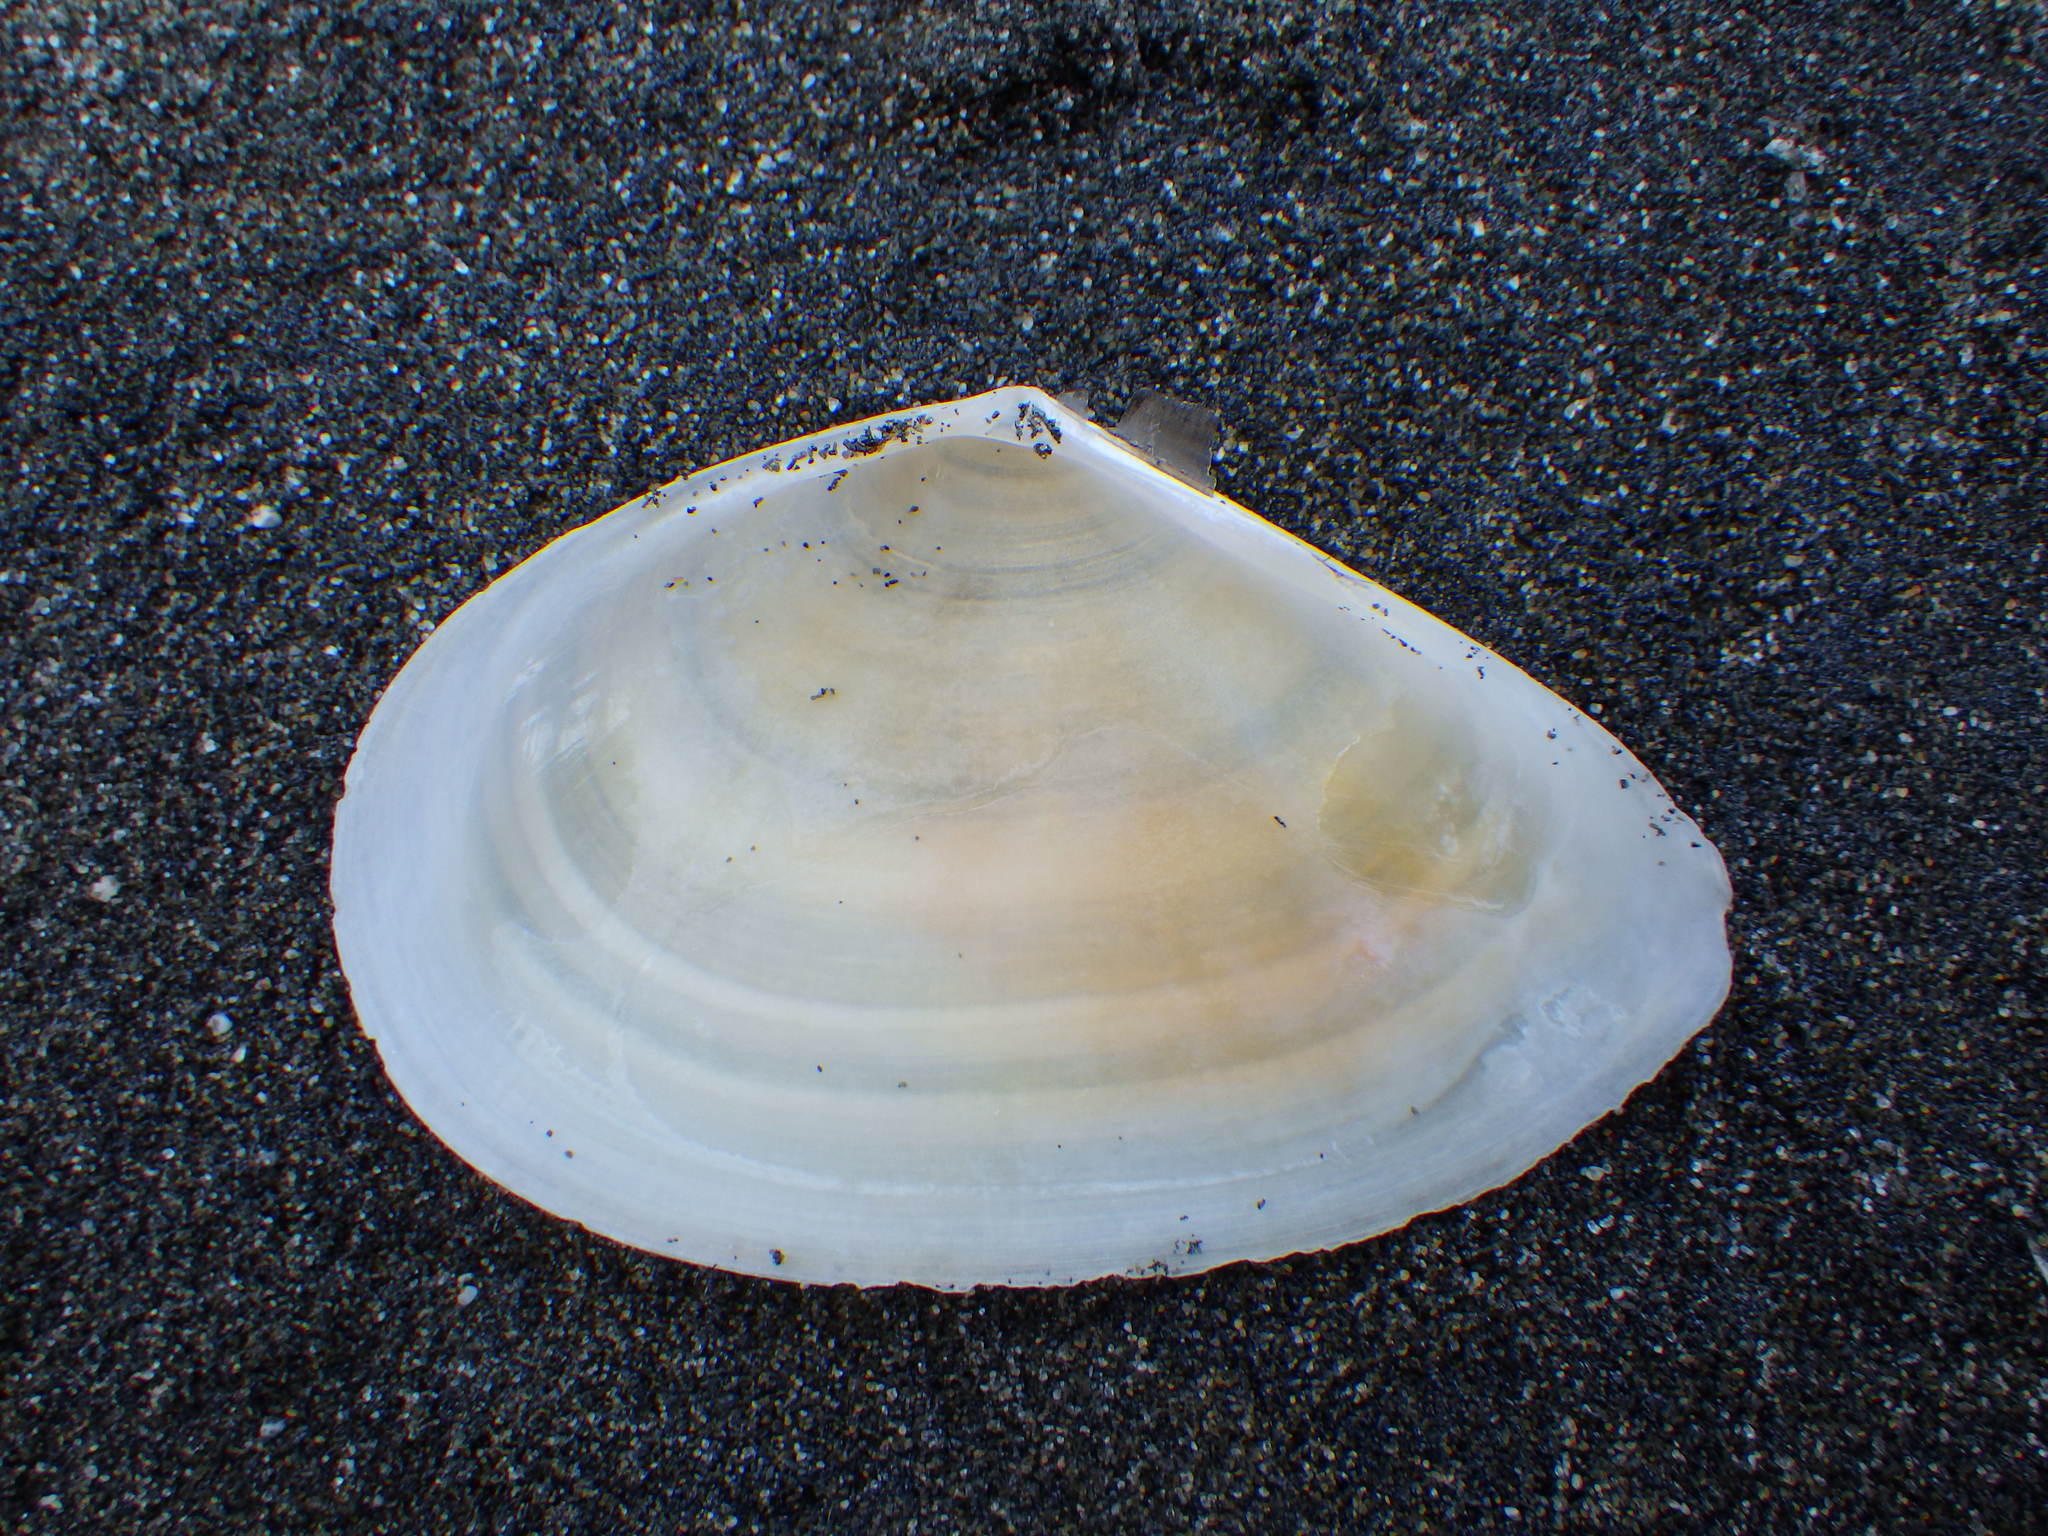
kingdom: Animalia
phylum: Mollusca
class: Bivalvia
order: Cardiida
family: Tellinidae
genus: Bartschicoma
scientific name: Bartschicoma edgari
